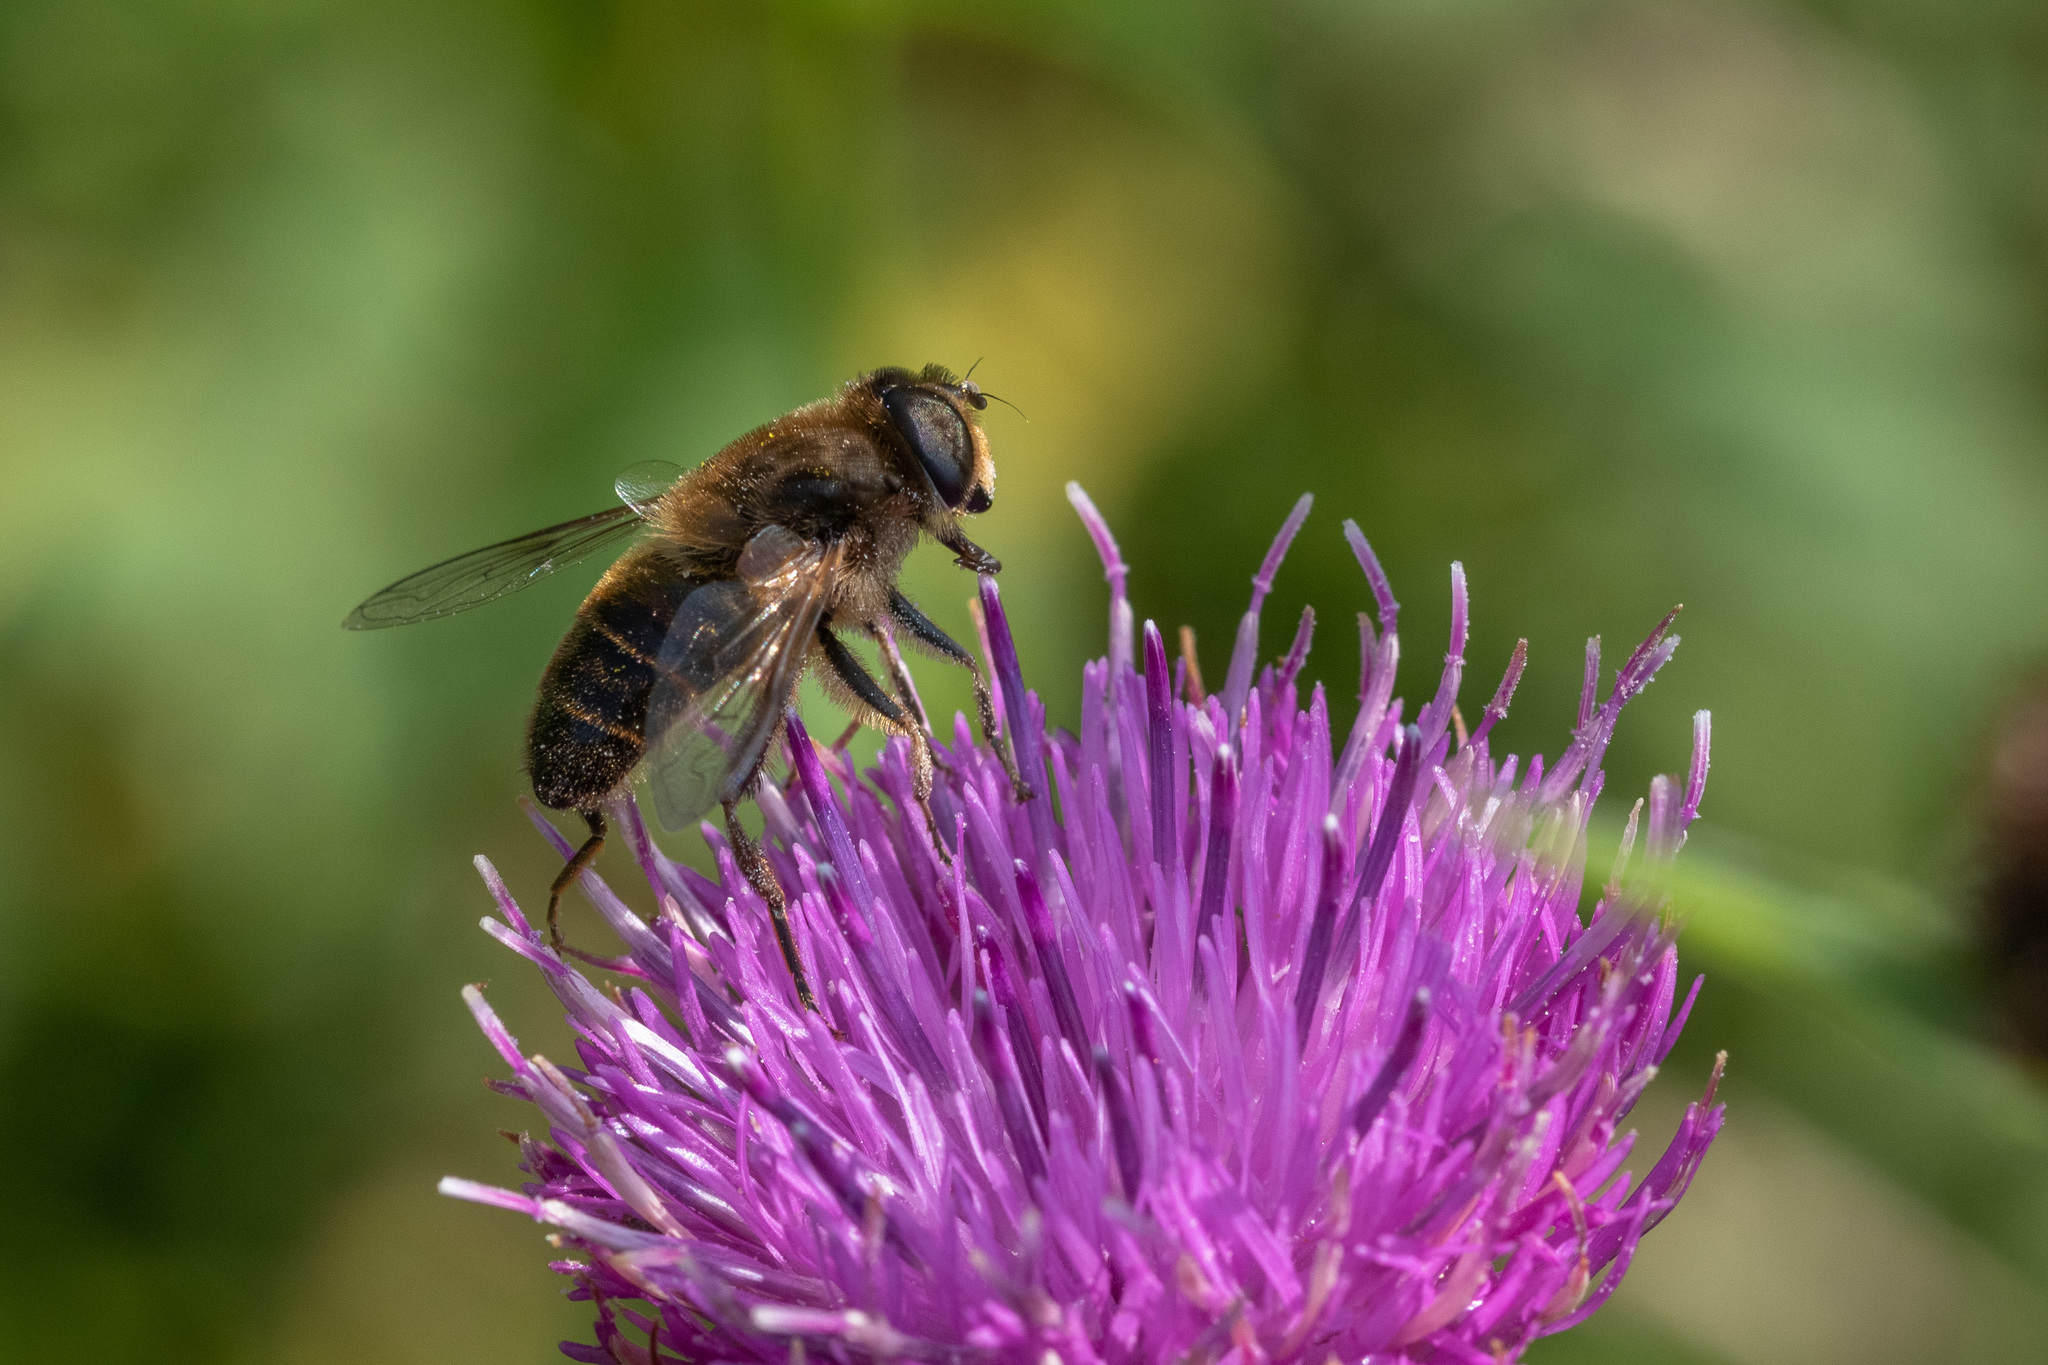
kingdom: Animalia
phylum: Arthropoda
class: Insecta
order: Diptera
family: Syrphidae
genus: Eristalis
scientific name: Eristalis tenax
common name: Drone fly
